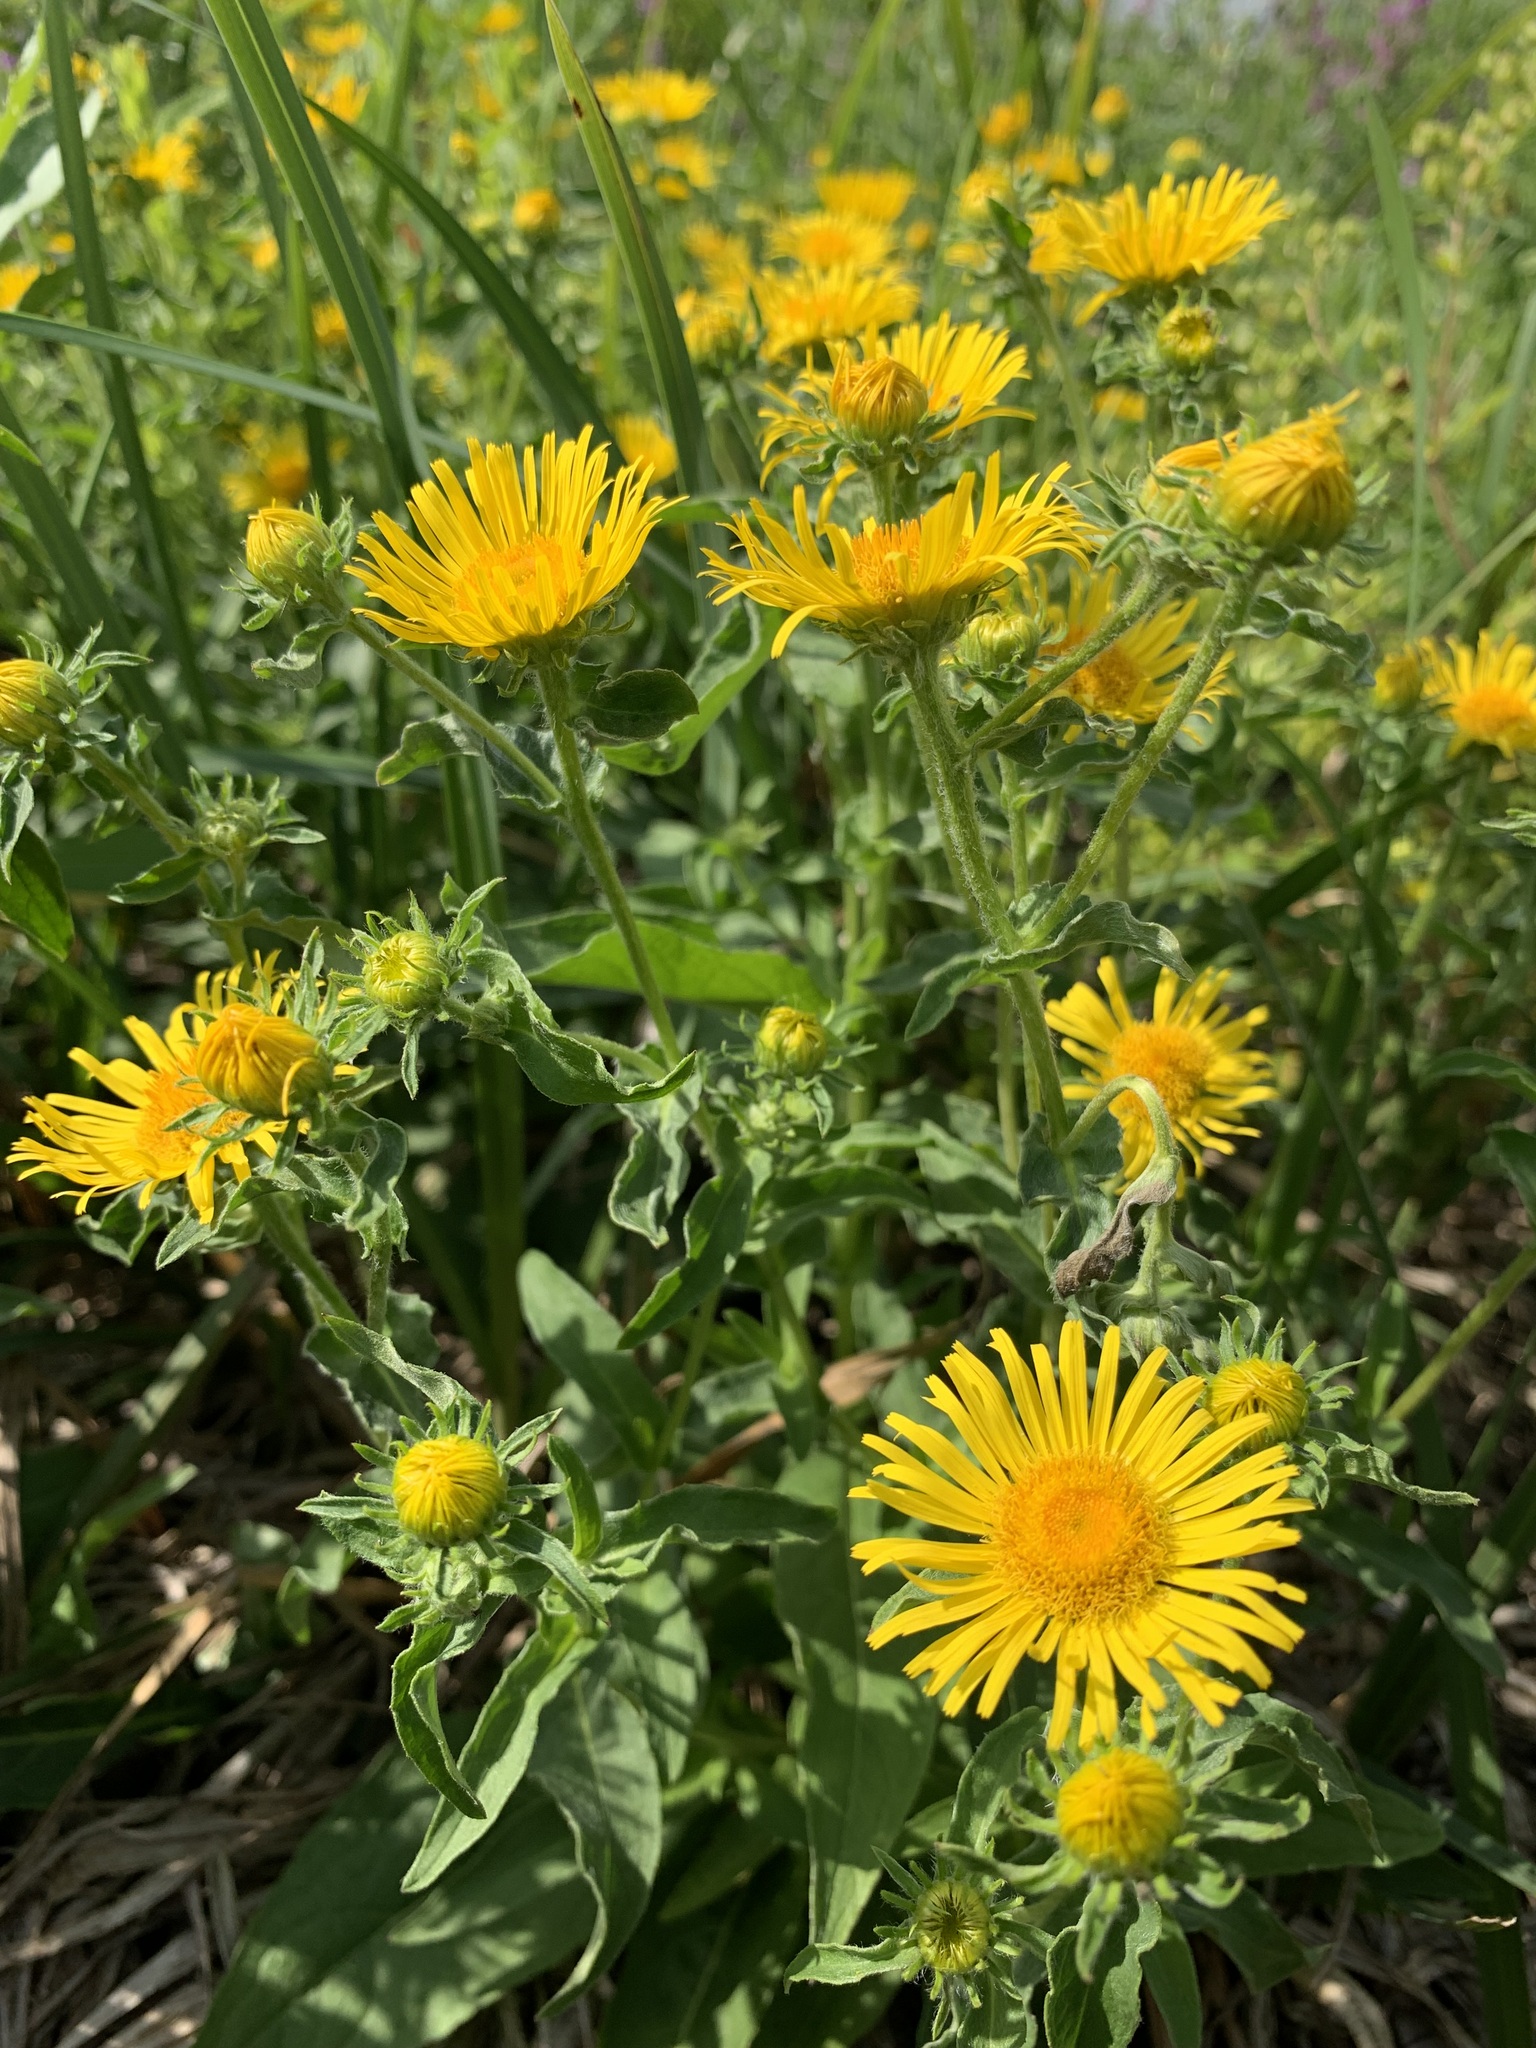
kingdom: Plantae
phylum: Tracheophyta
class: Magnoliopsida
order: Asterales
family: Asteraceae
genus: Pentanema
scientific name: Pentanema britannicum
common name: British elecampane
